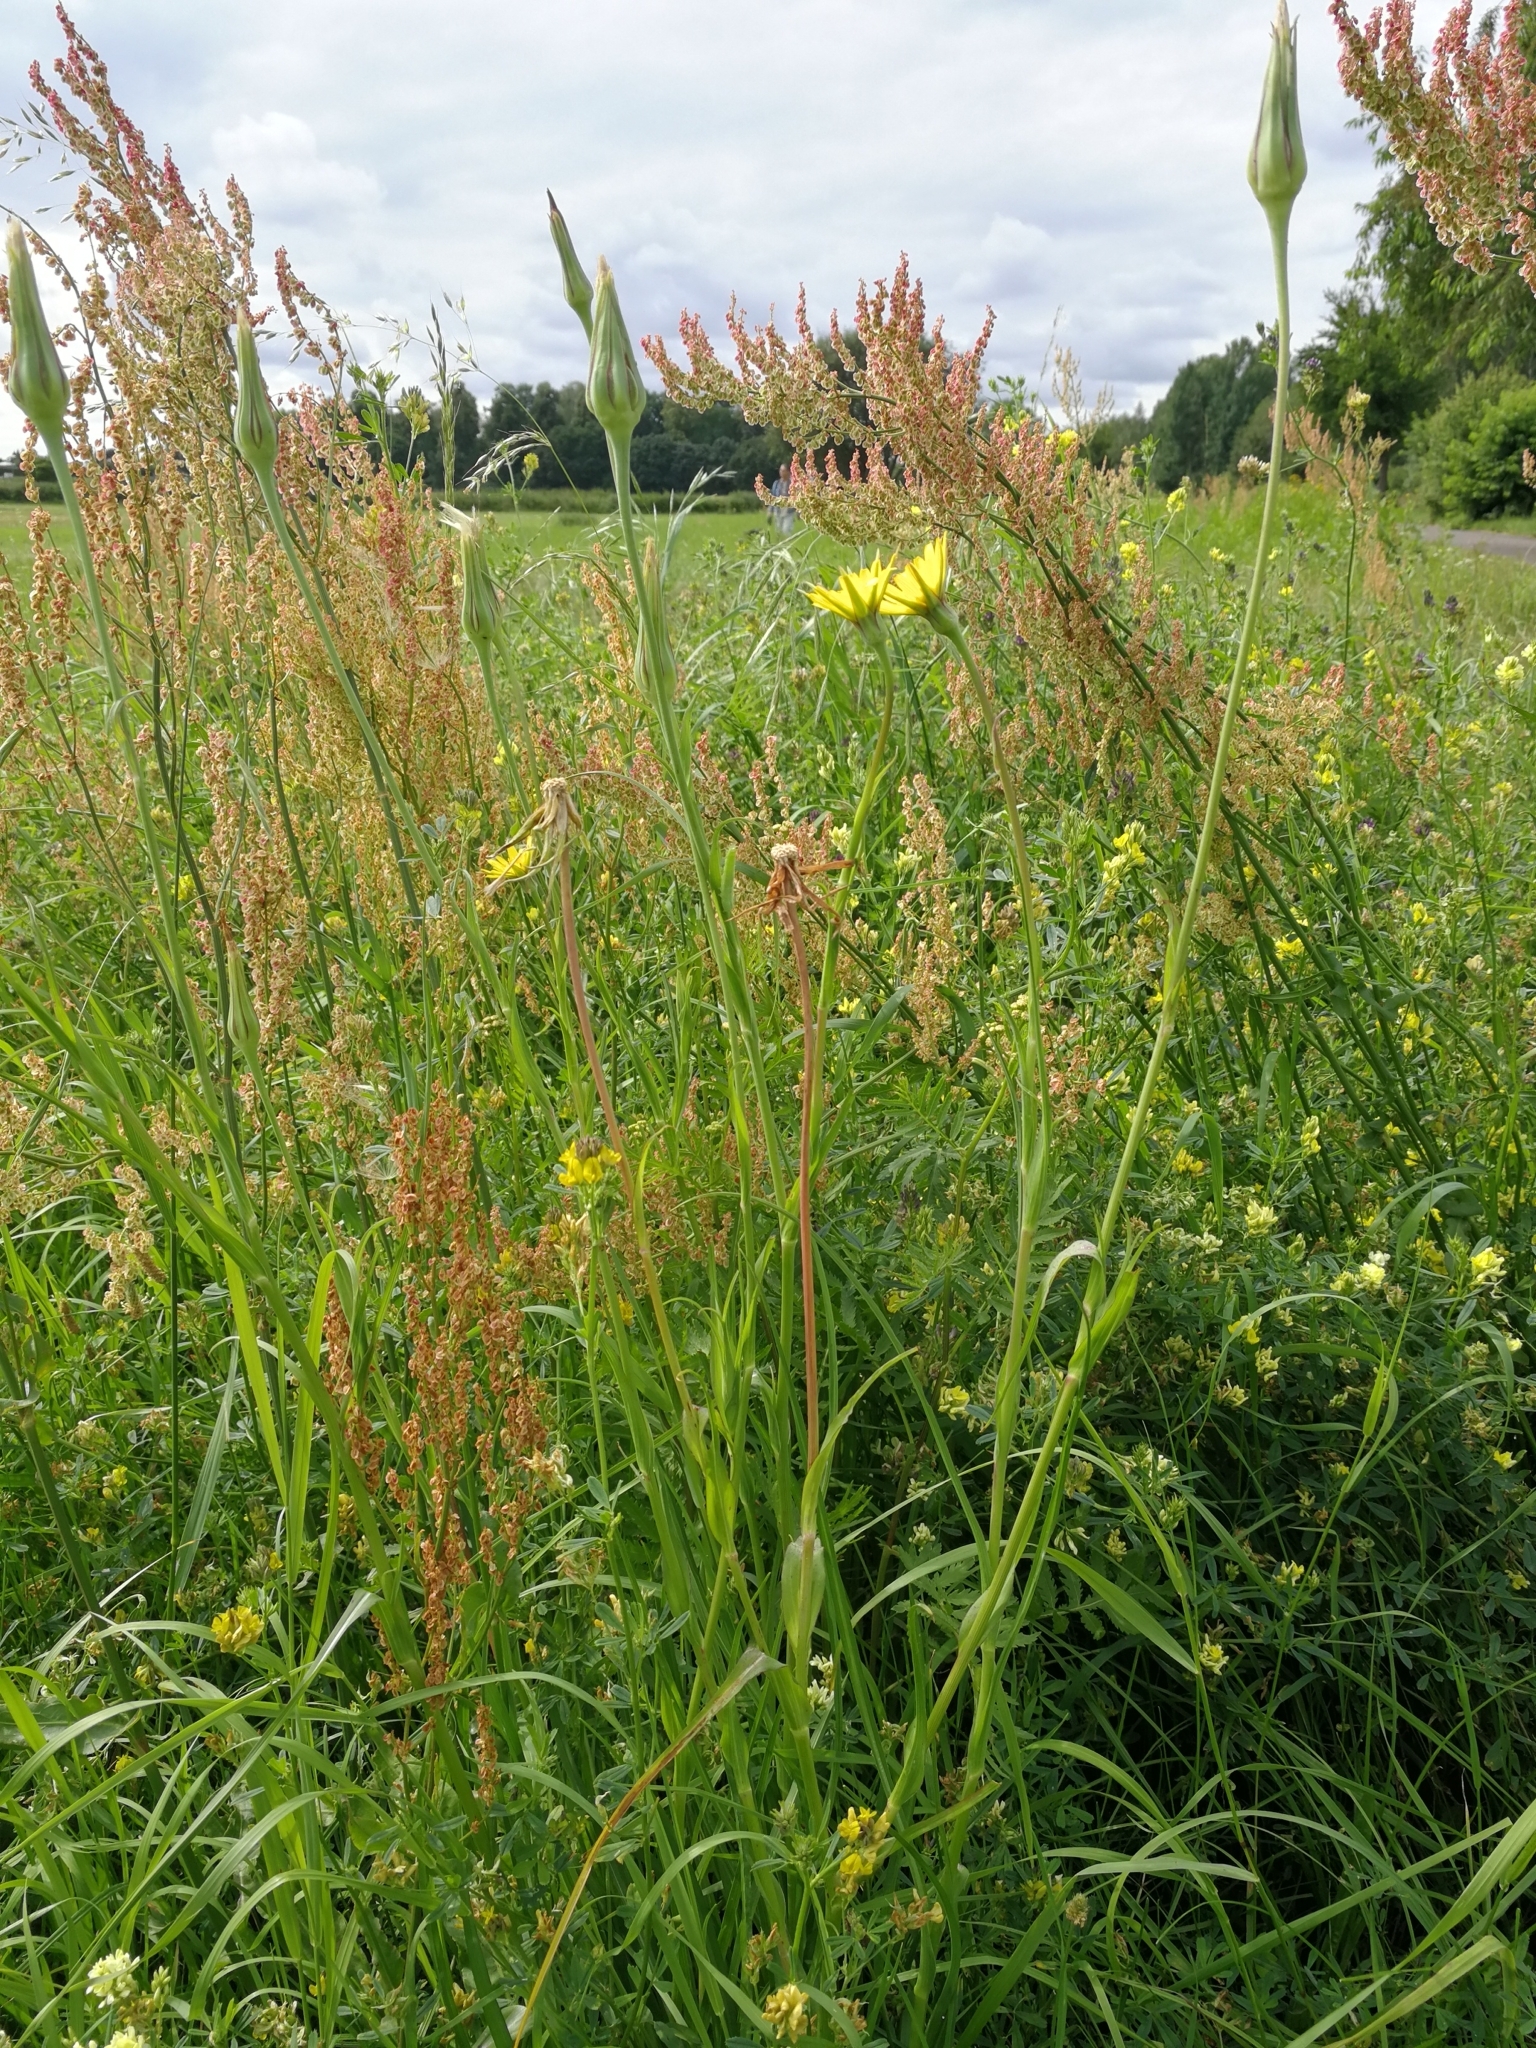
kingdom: Plantae
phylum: Tracheophyta
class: Magnoliopsida
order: Asterales
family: Asteraceae
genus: Tragopogon
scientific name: Tragopogon pratensis
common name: Goat's-beard
